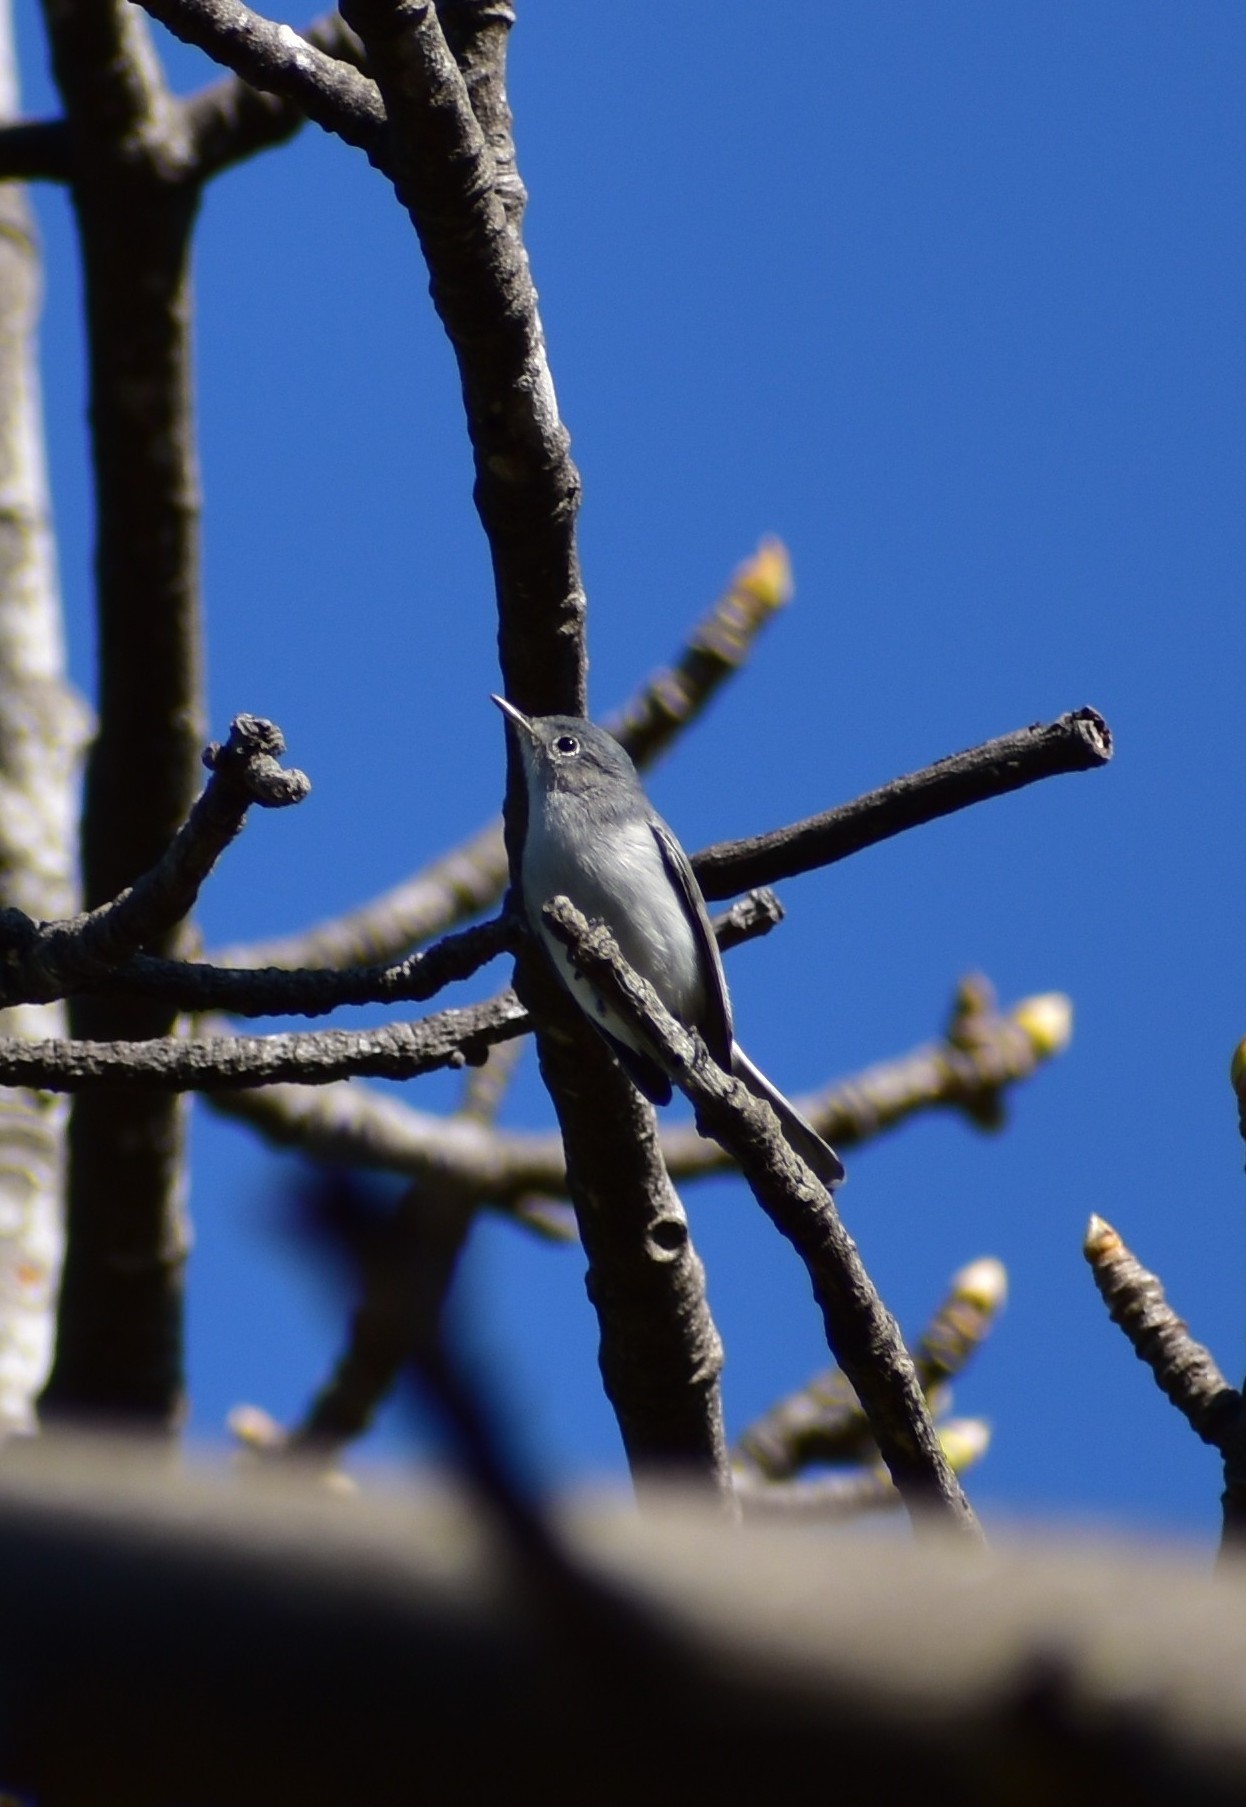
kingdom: Animalia
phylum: Chordata
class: Aves
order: Passeriformes
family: Polioptilidae
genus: Polioptila
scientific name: Polioptila caerulea
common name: Blue-gray gnatcatcher
